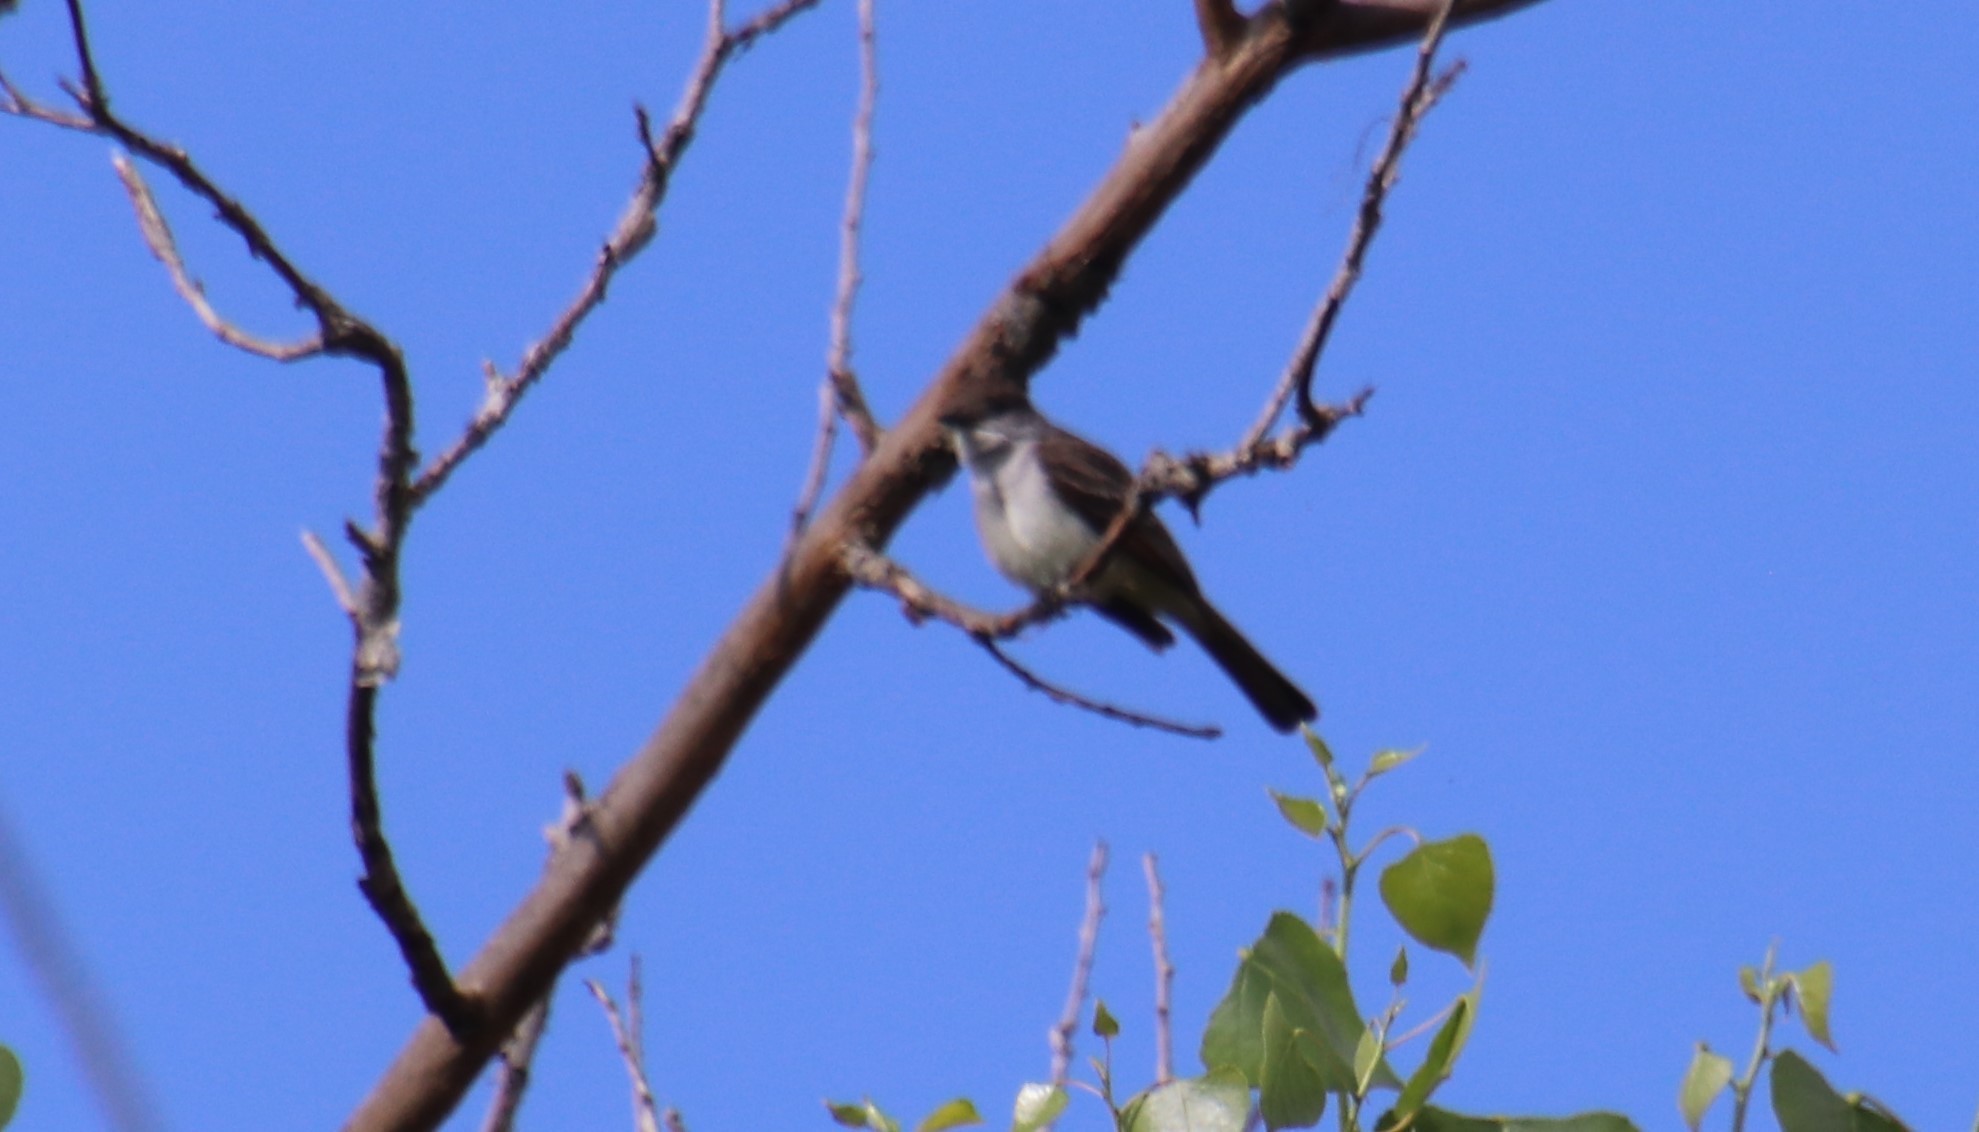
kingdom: Animalia
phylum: Chordata
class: Aves
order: Passeriformes
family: Tyrannidae
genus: Myiarchus
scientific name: Myiarchus cinerascens
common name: Ash-throated flycatcher
